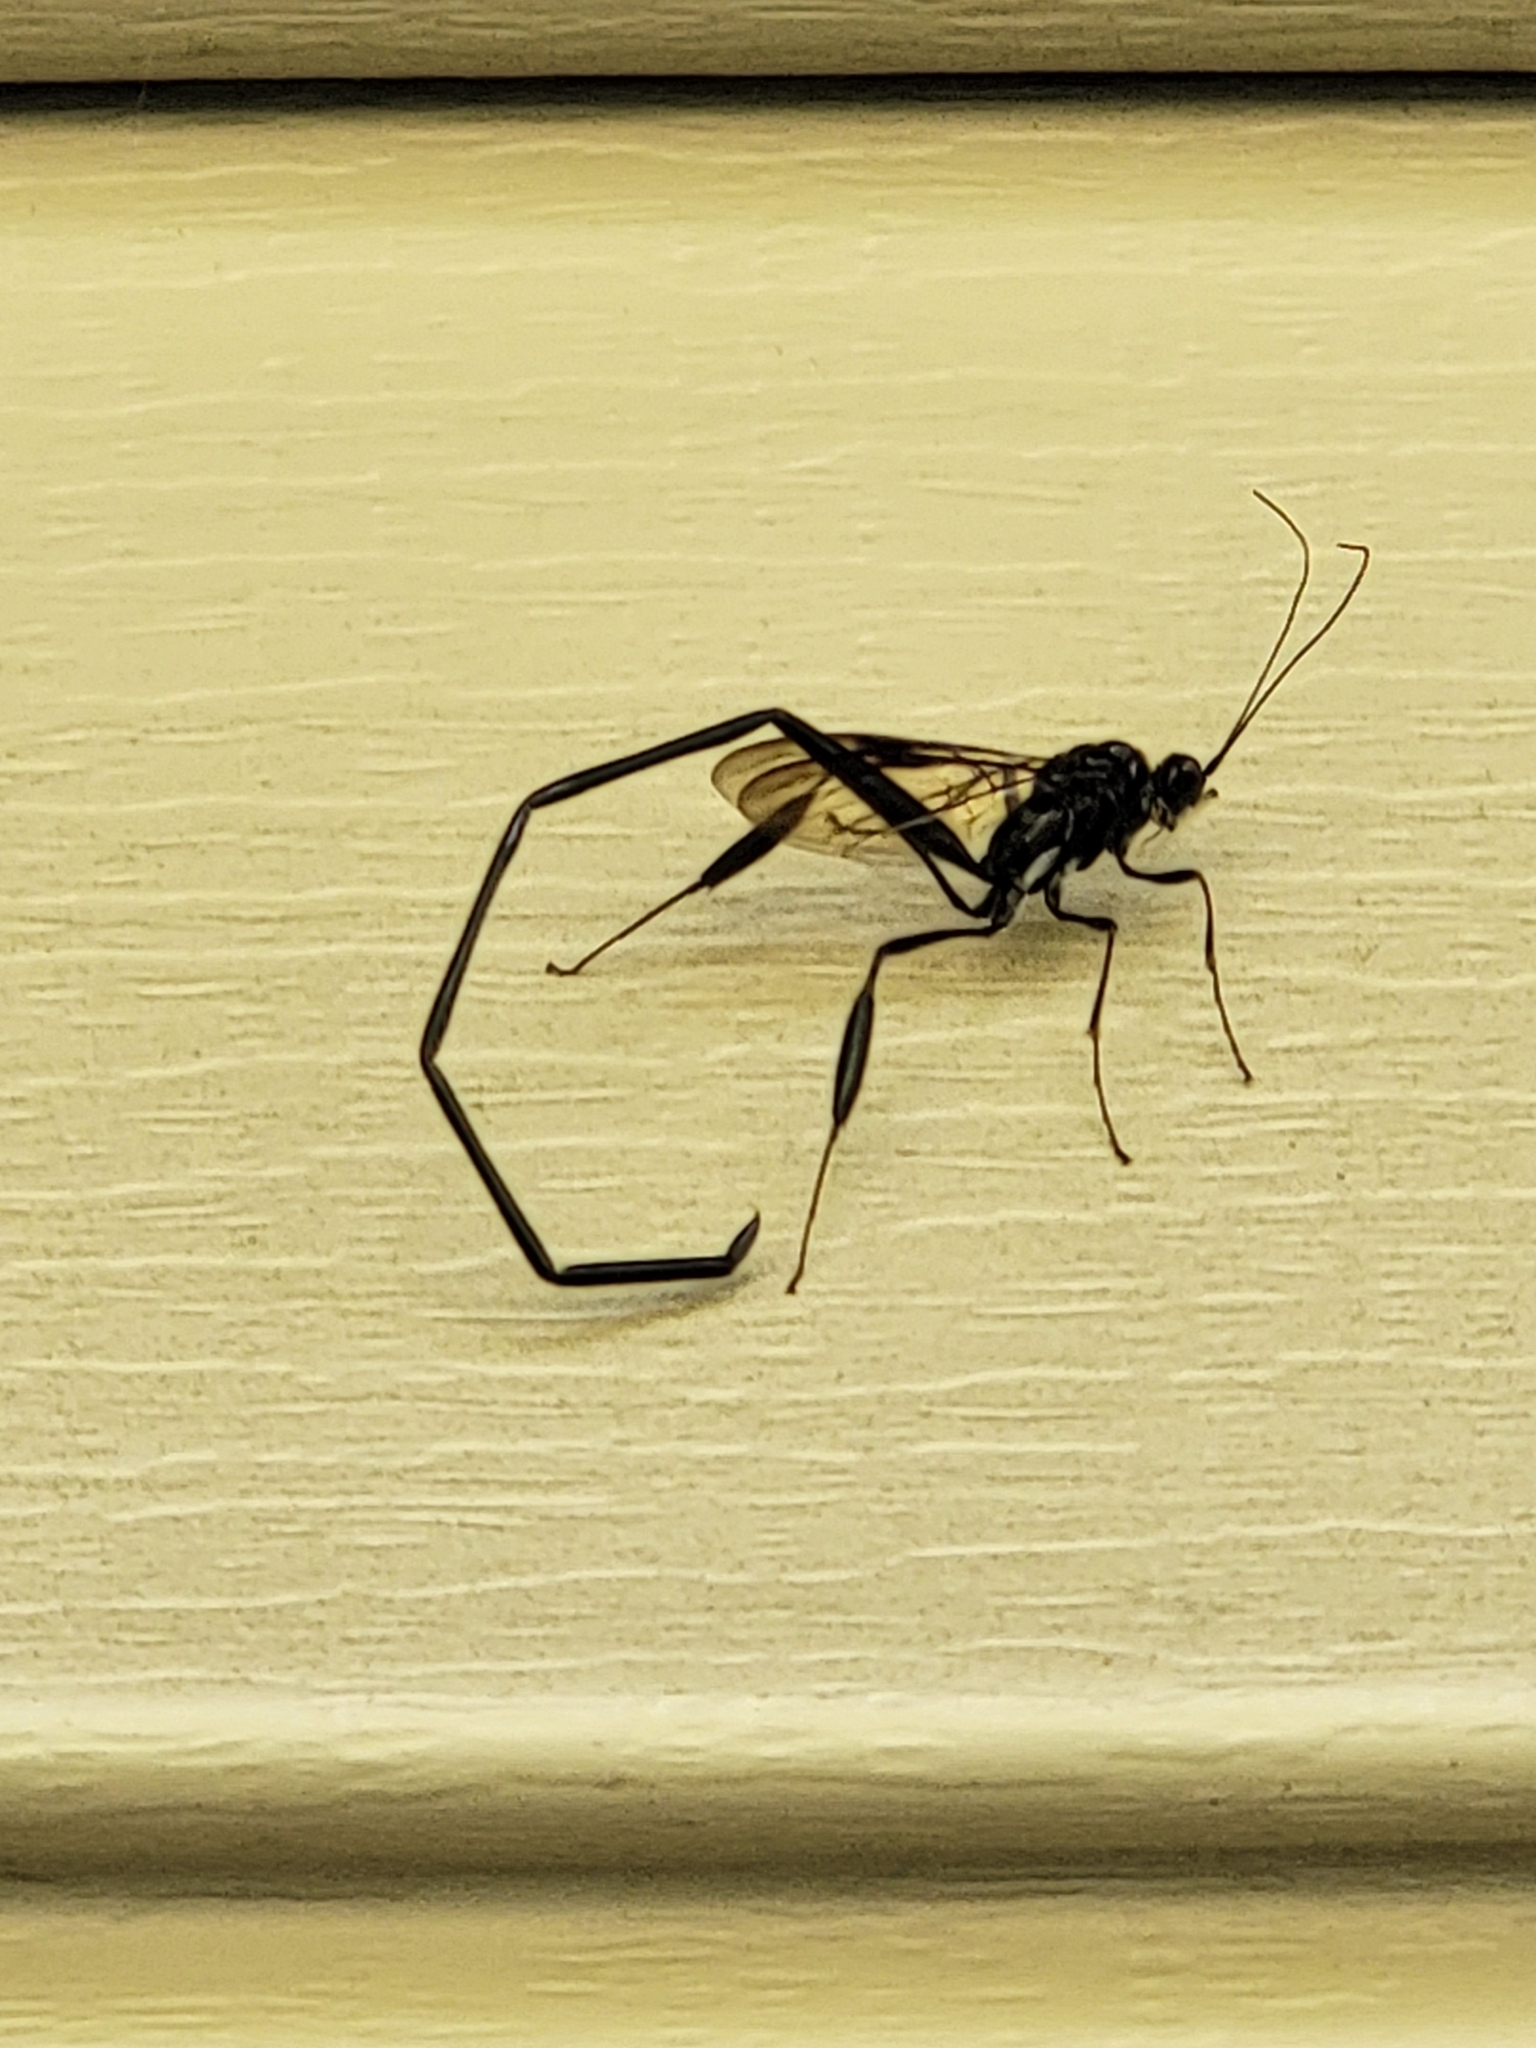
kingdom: Animalia
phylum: Arthropoda
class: Insecta
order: Hymenoptera
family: Pelecinidae
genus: Pelecinus
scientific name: Pelecinus polyturator
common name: American pelecinid wasp
